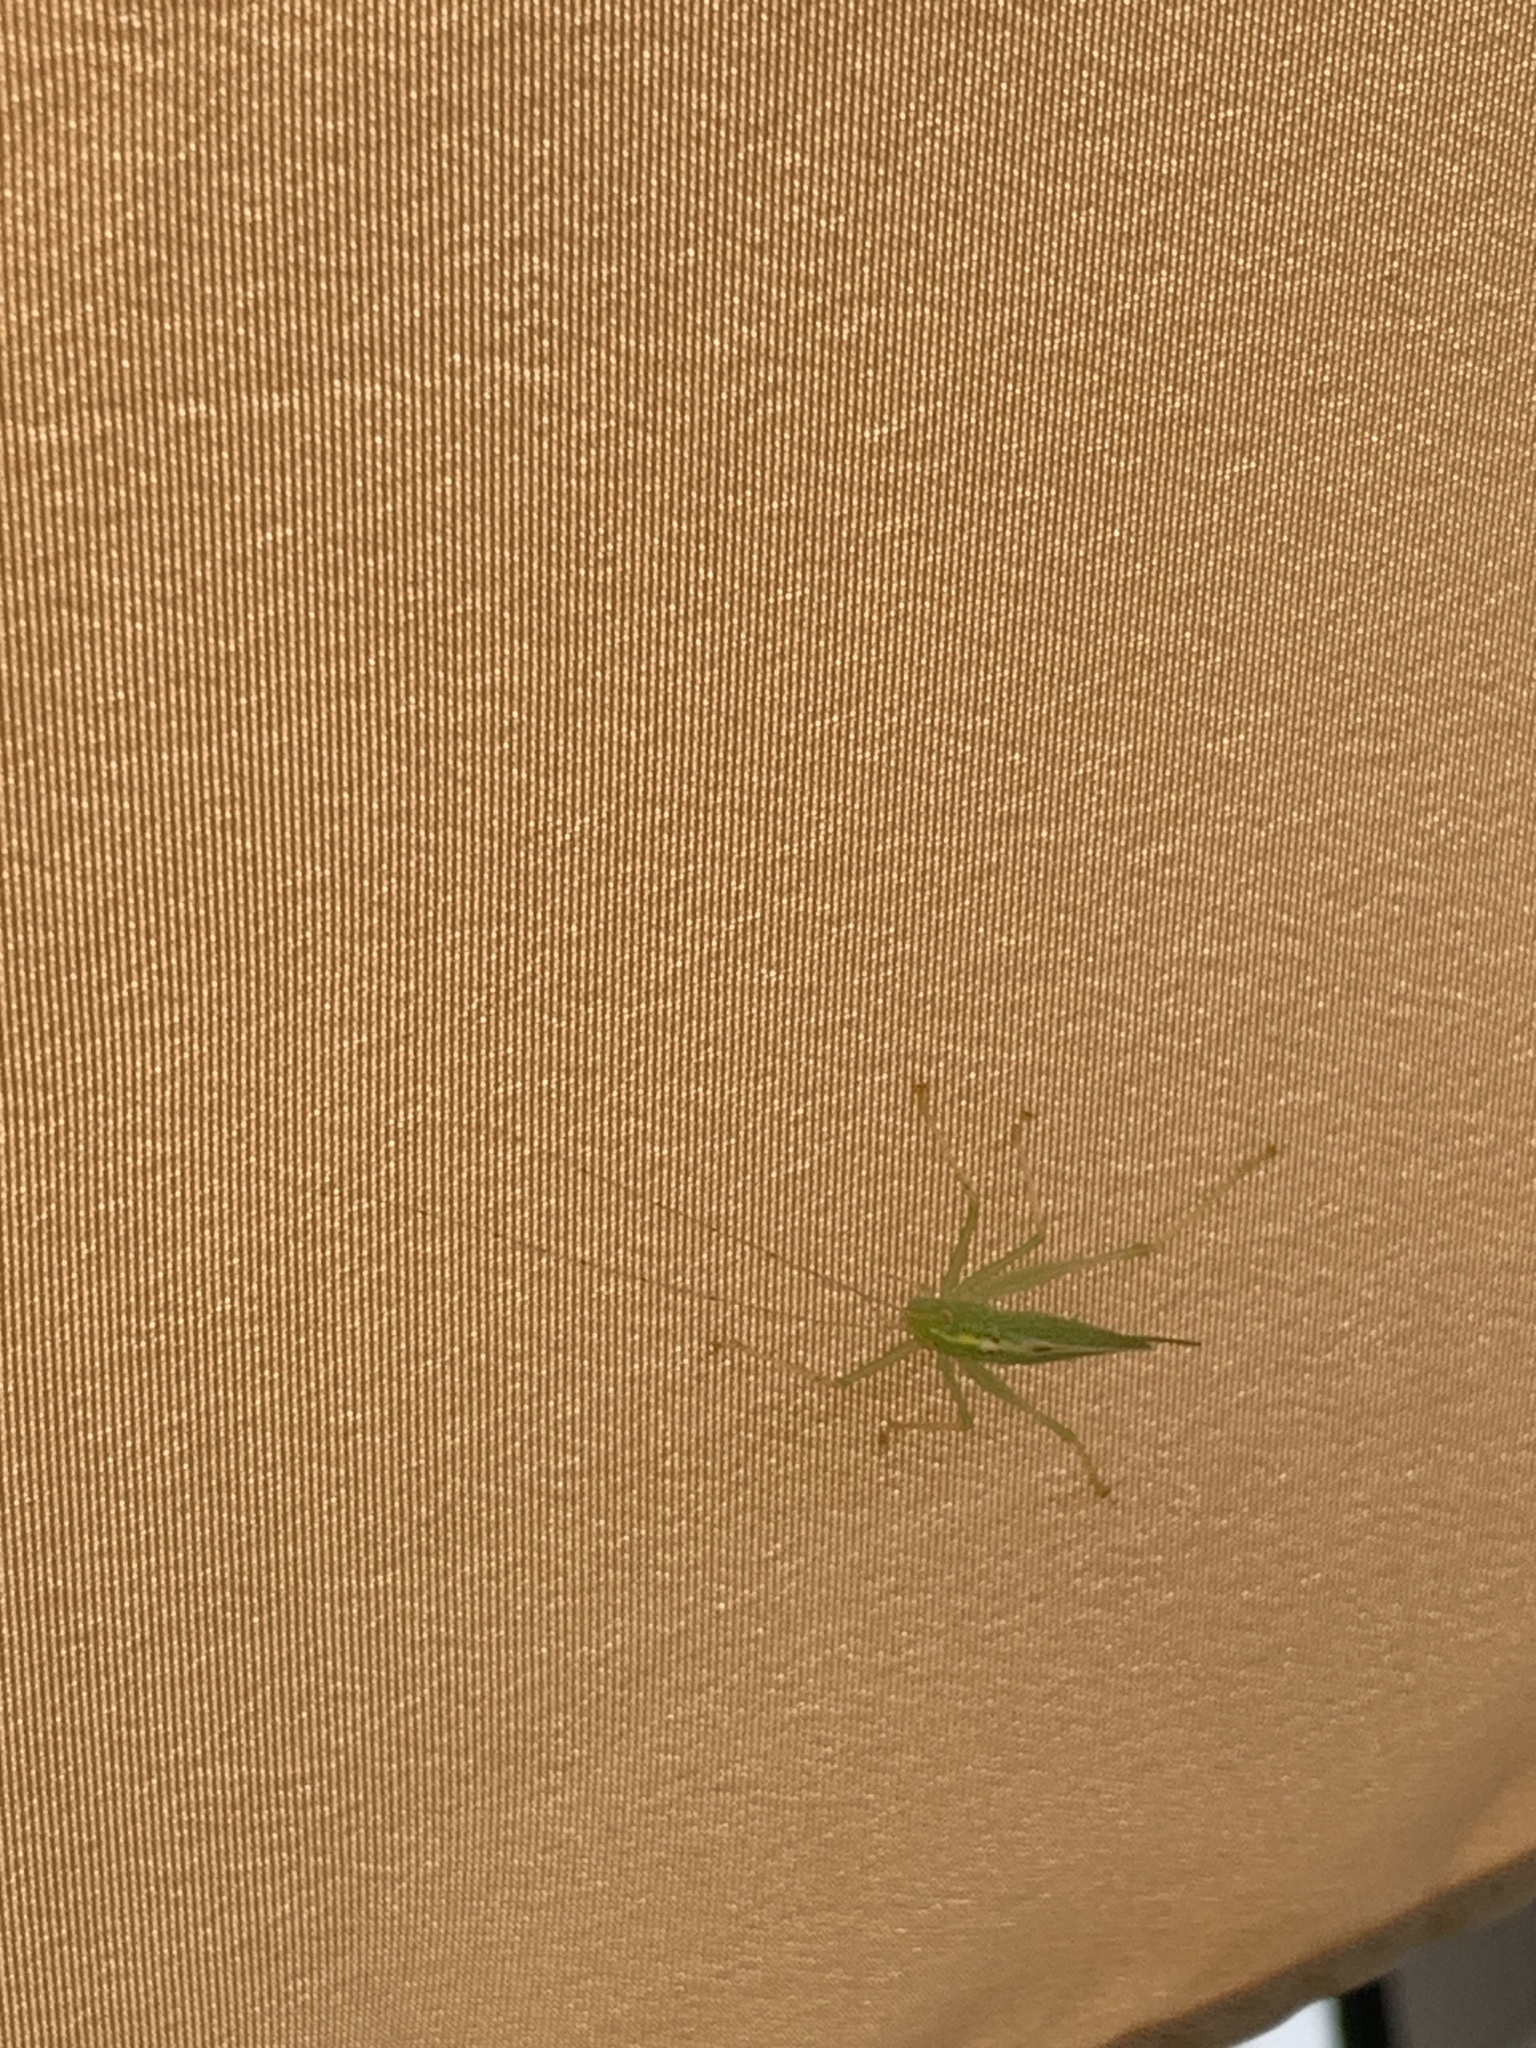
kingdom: Animalia
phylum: Arthropoda
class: Insecta
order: Orthoptera
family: Tettigoniidae
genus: Meconema
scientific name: Meconema thalassinum
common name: Oak bush-cricket
